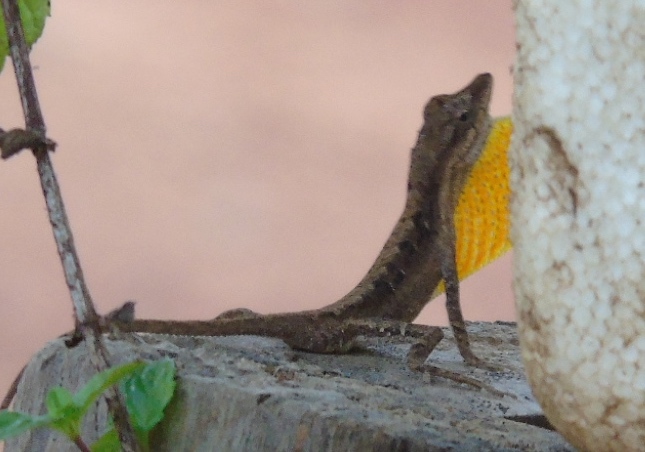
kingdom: Animalia
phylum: Chordata
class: Squamata
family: Dactyloidae
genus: Anolis
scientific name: Anolis nebulosus
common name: Clouded anole
